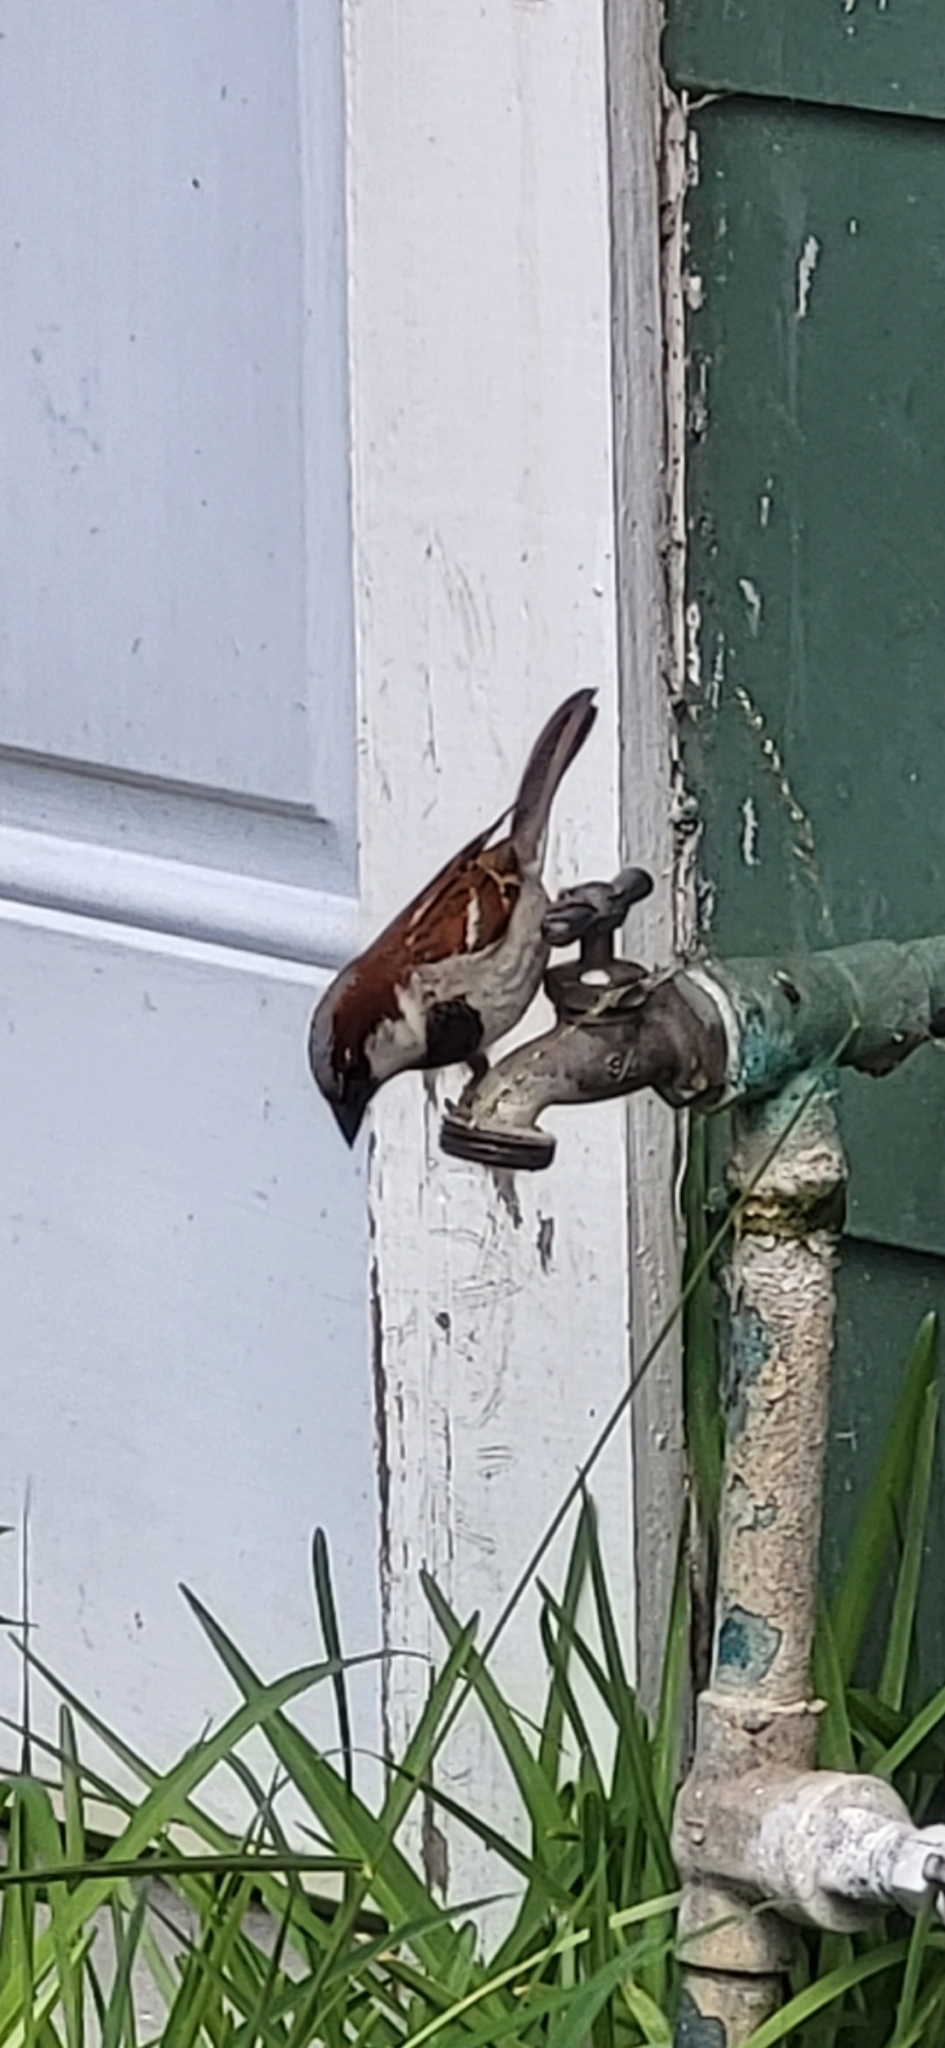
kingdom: Animalia
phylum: Chordata
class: Aves
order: Passeriformes
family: Passeridae
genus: Passer
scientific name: Passer domesticus
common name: House sparrow
